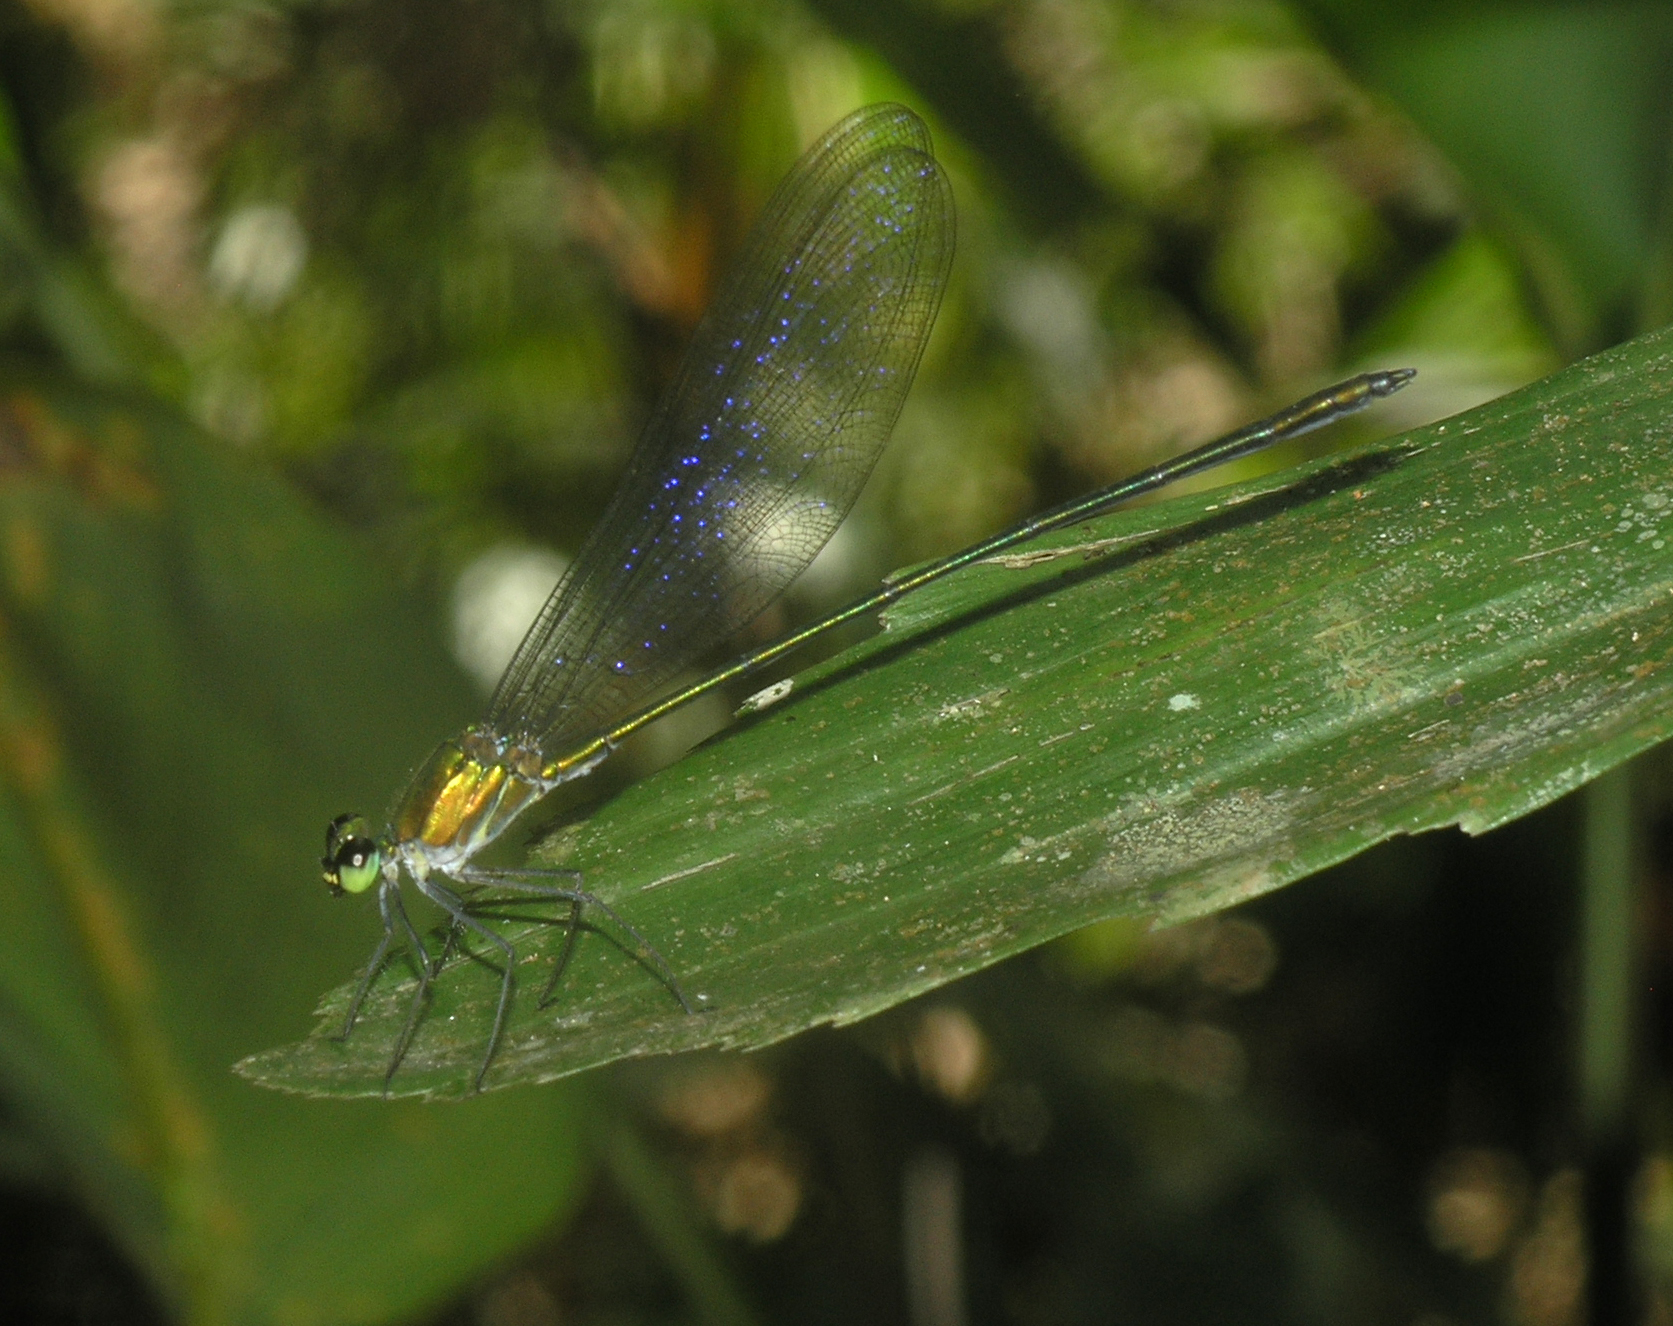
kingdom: Animalia
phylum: Arthropoda
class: Insecta
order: Odonata
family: Calopterygidae
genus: Vestalis
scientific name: Vestalis anne
